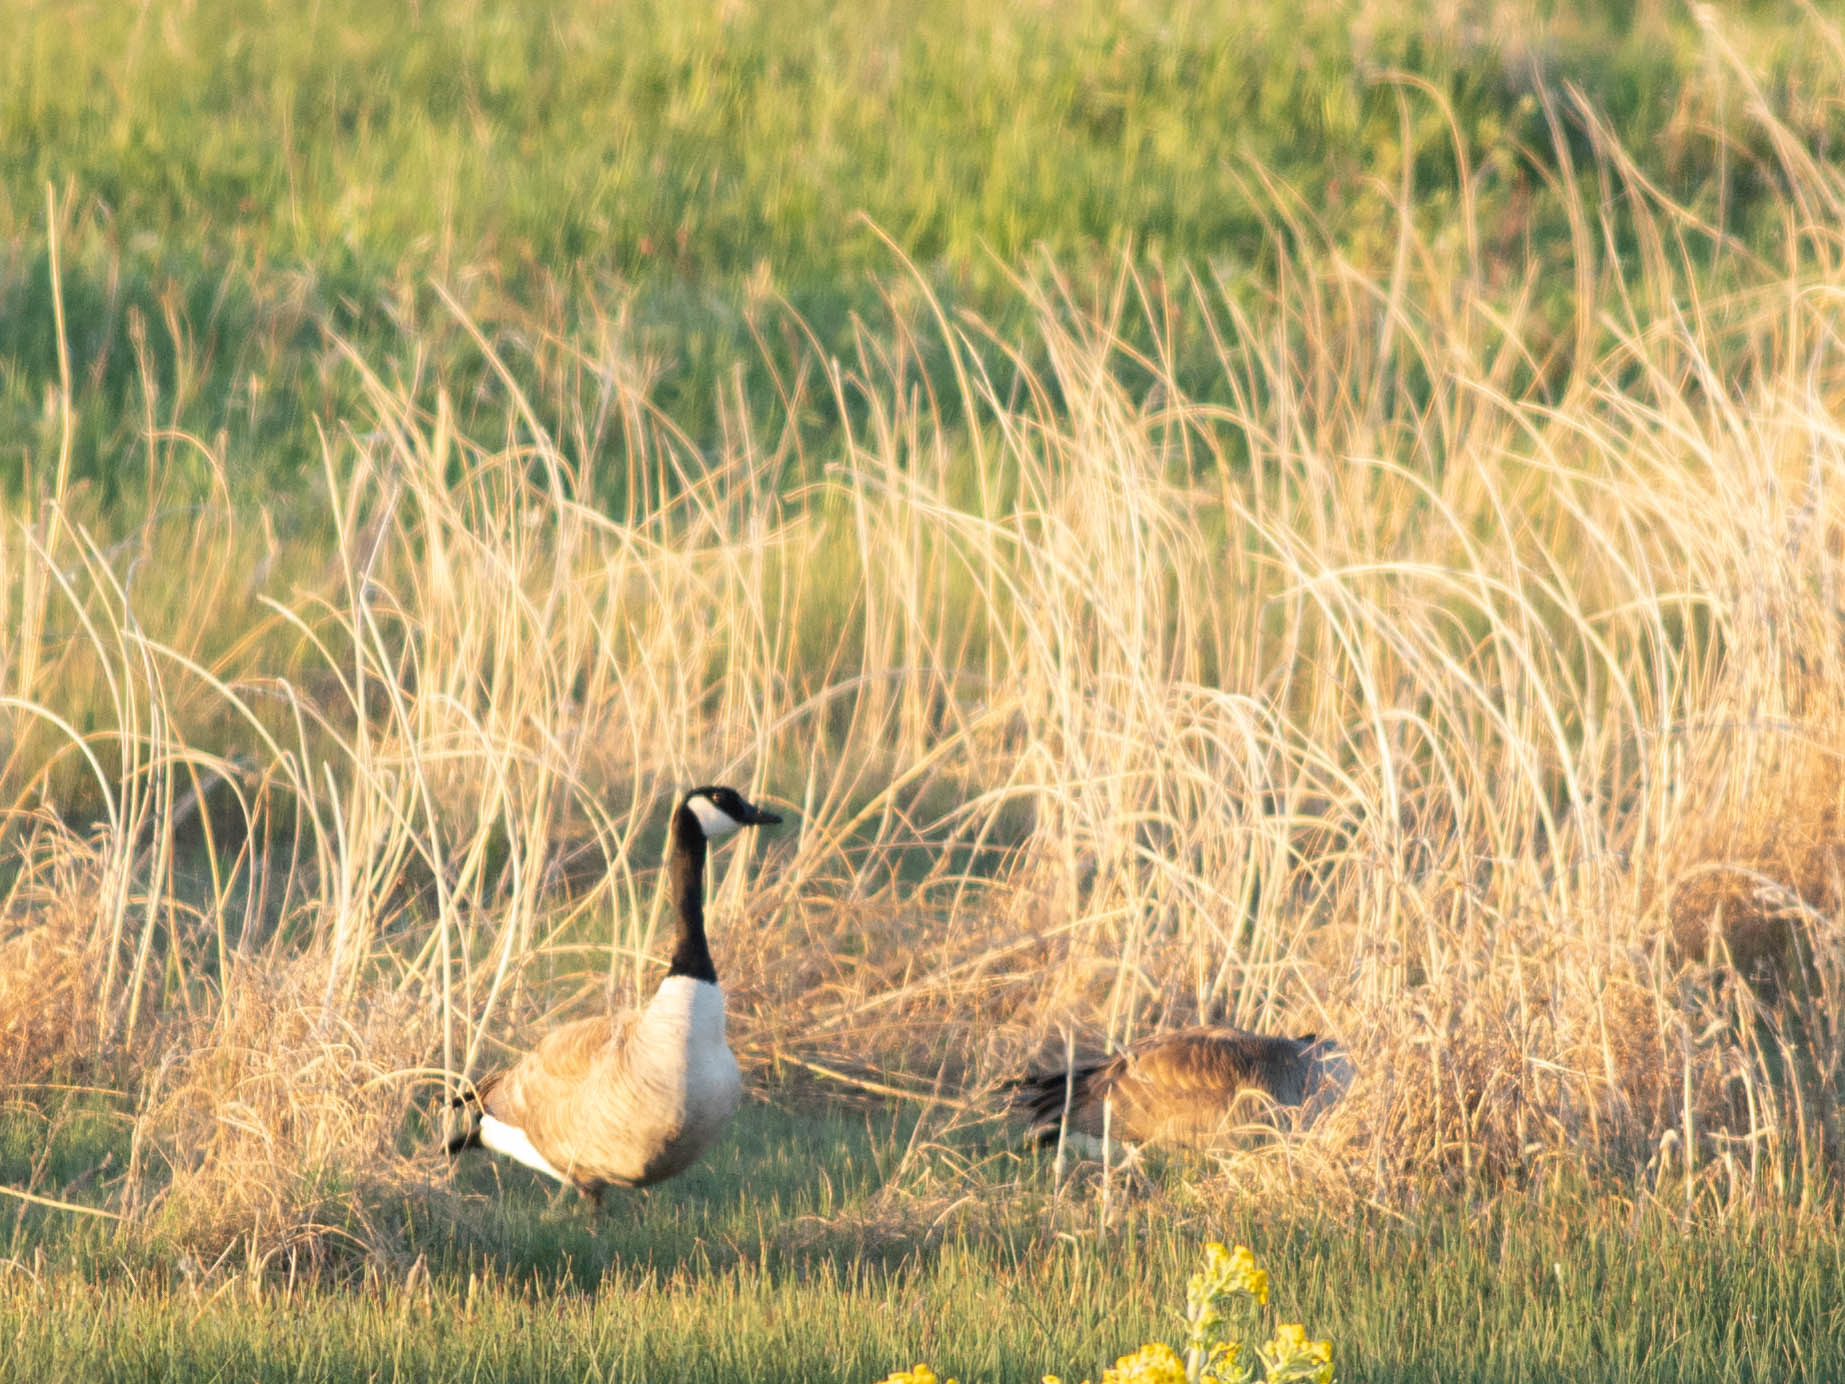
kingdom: Animalia
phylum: Chordata
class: Aves
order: Anseriformes
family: Anatidae
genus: Branta
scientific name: Branta canadensis
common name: Canada goose
